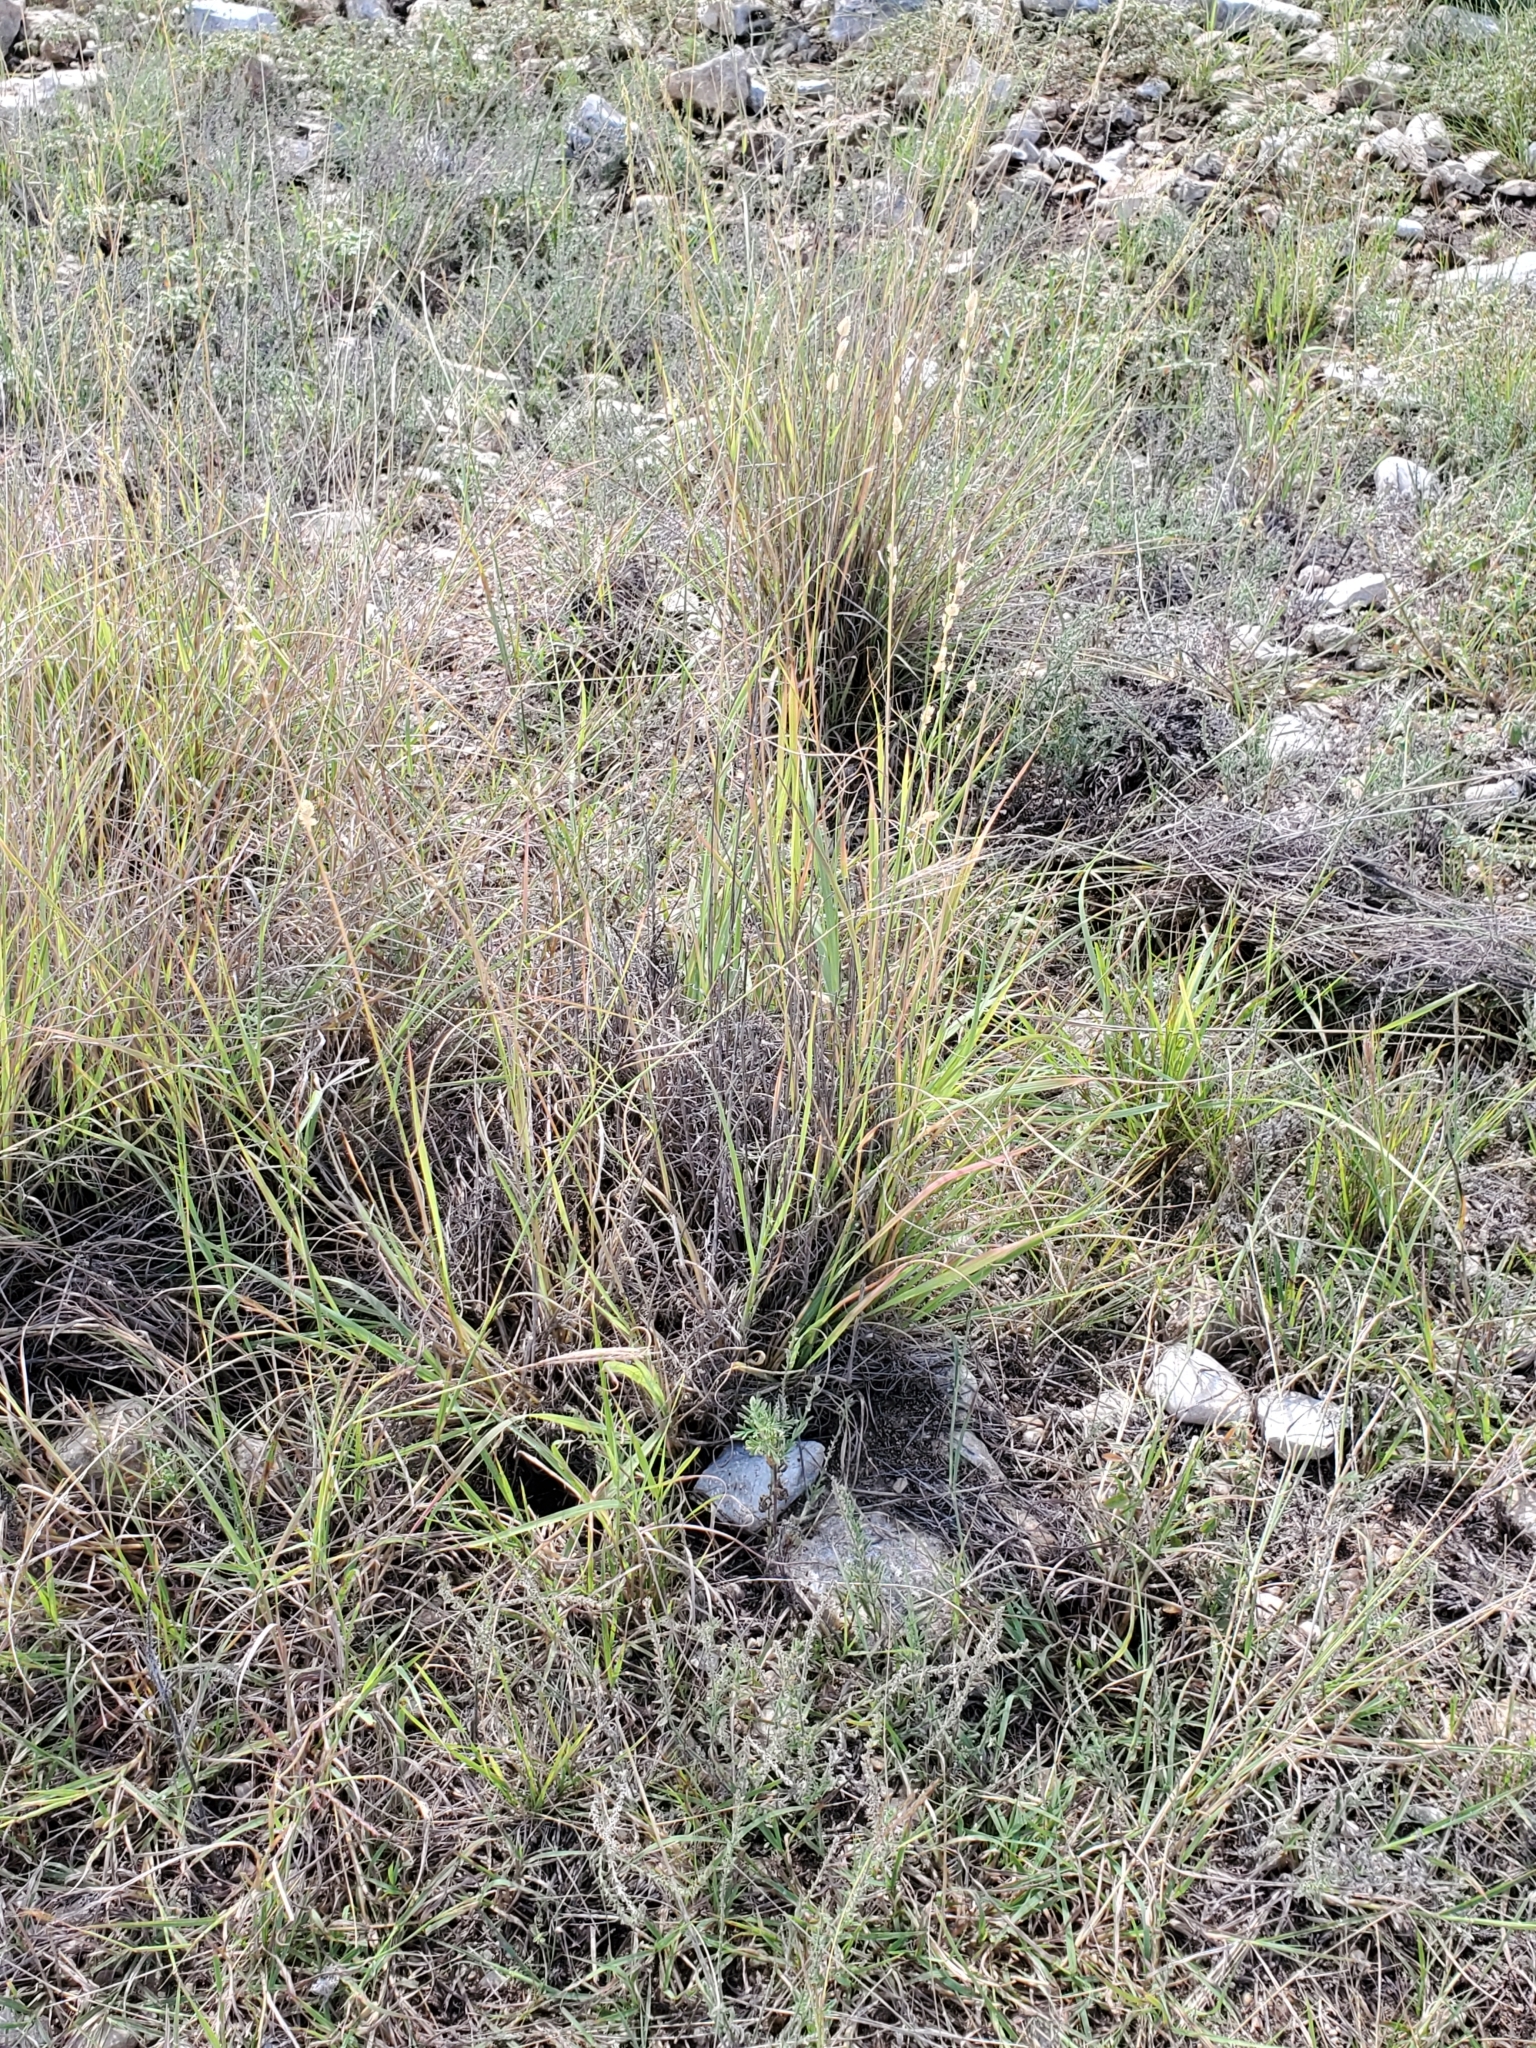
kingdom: Plantae
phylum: Tracheophyta
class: Liliopsida
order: Poales
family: Poaceae
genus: Eragrostis
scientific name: Eragrostis superba
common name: Wilman lovegrass
